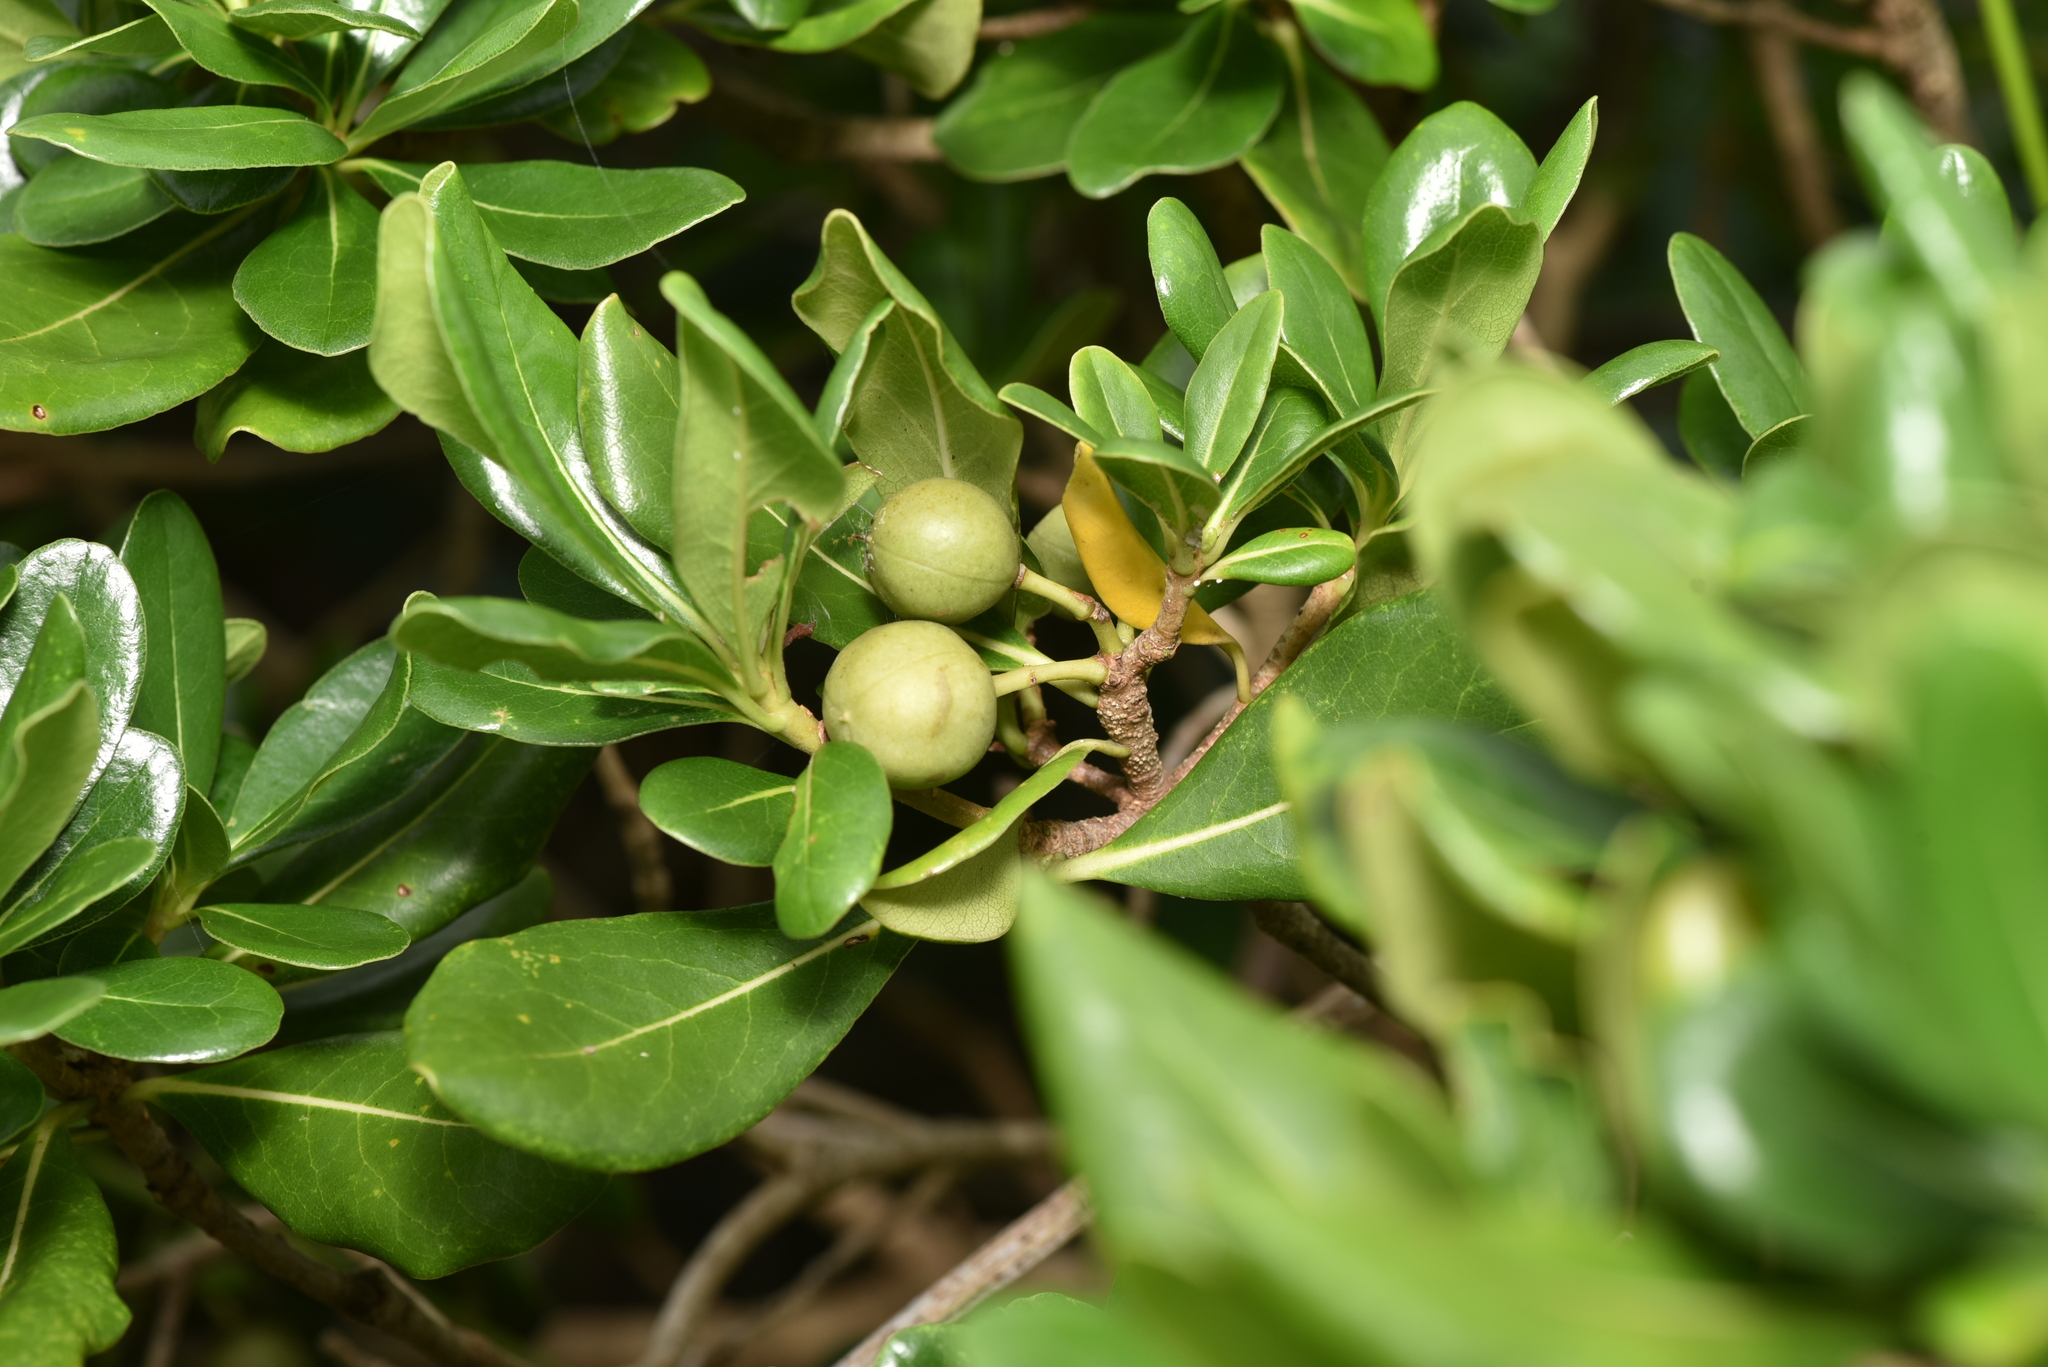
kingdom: Plantae
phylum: Tracheophyta
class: Magnoliopsida
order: Apiales
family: Pittosporaceae
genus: Pittosporum
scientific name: Pittosporum tobira
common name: Japanese cheesewood
